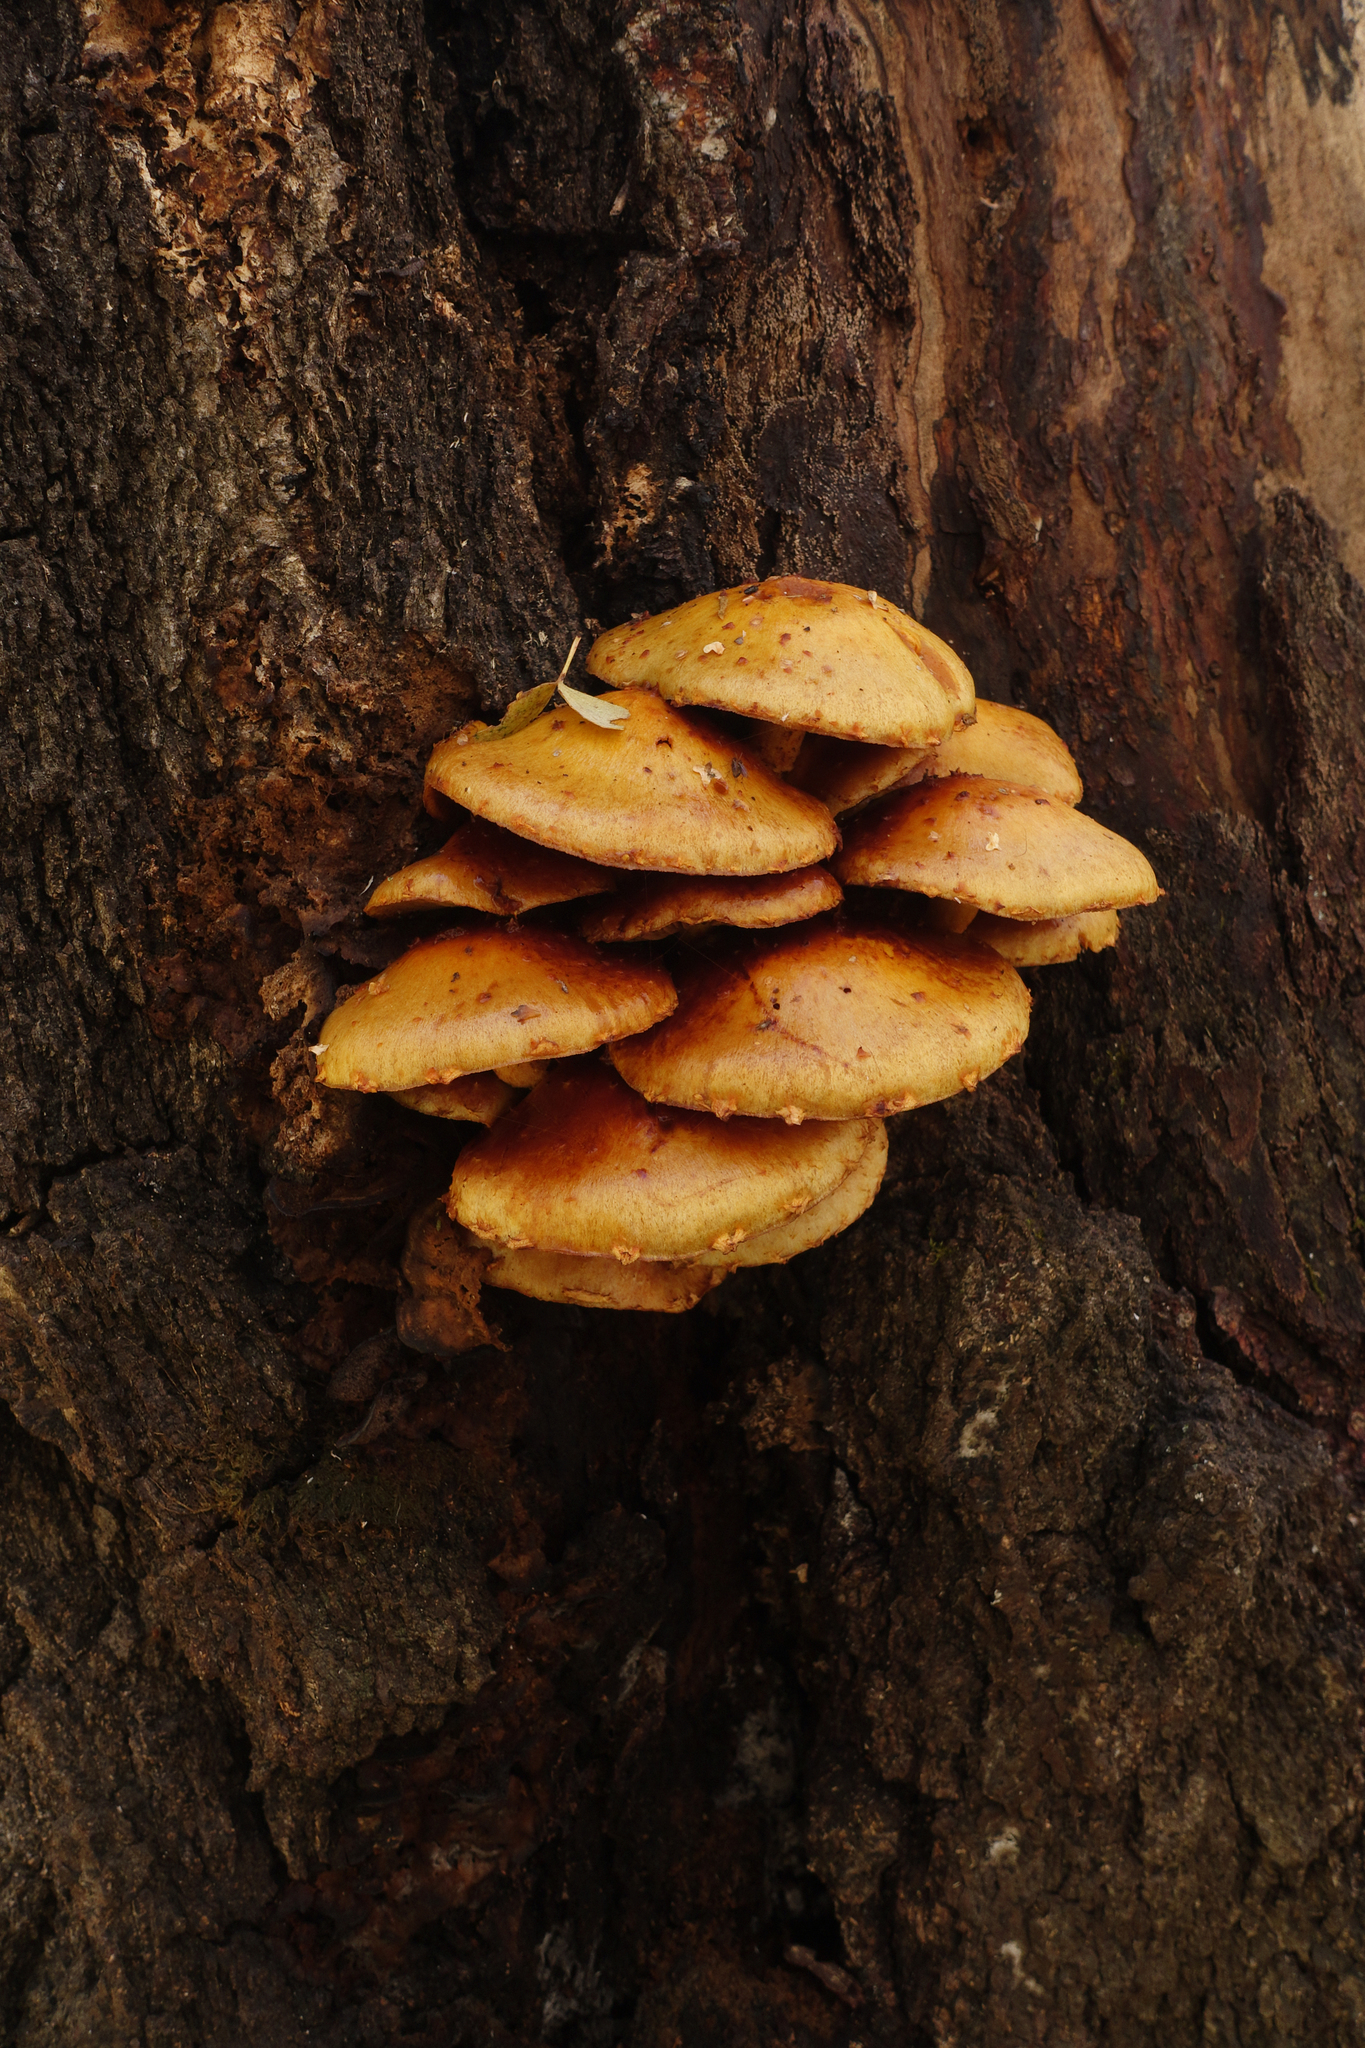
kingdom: Fungi
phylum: Basidiomycota
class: Agaricomycetes
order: Agaricales
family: Strophariaceae
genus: Pholiota
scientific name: Pholiota aurivella
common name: Golden scalycap
